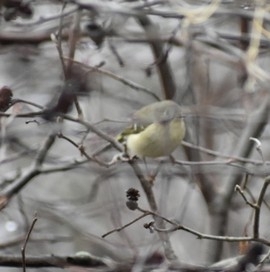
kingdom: Animalia
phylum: Chordata
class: Aves
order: Passeriformes
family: Regulidae
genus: Regulus
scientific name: Regulus calendula
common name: Ruby-crowned kinglet
